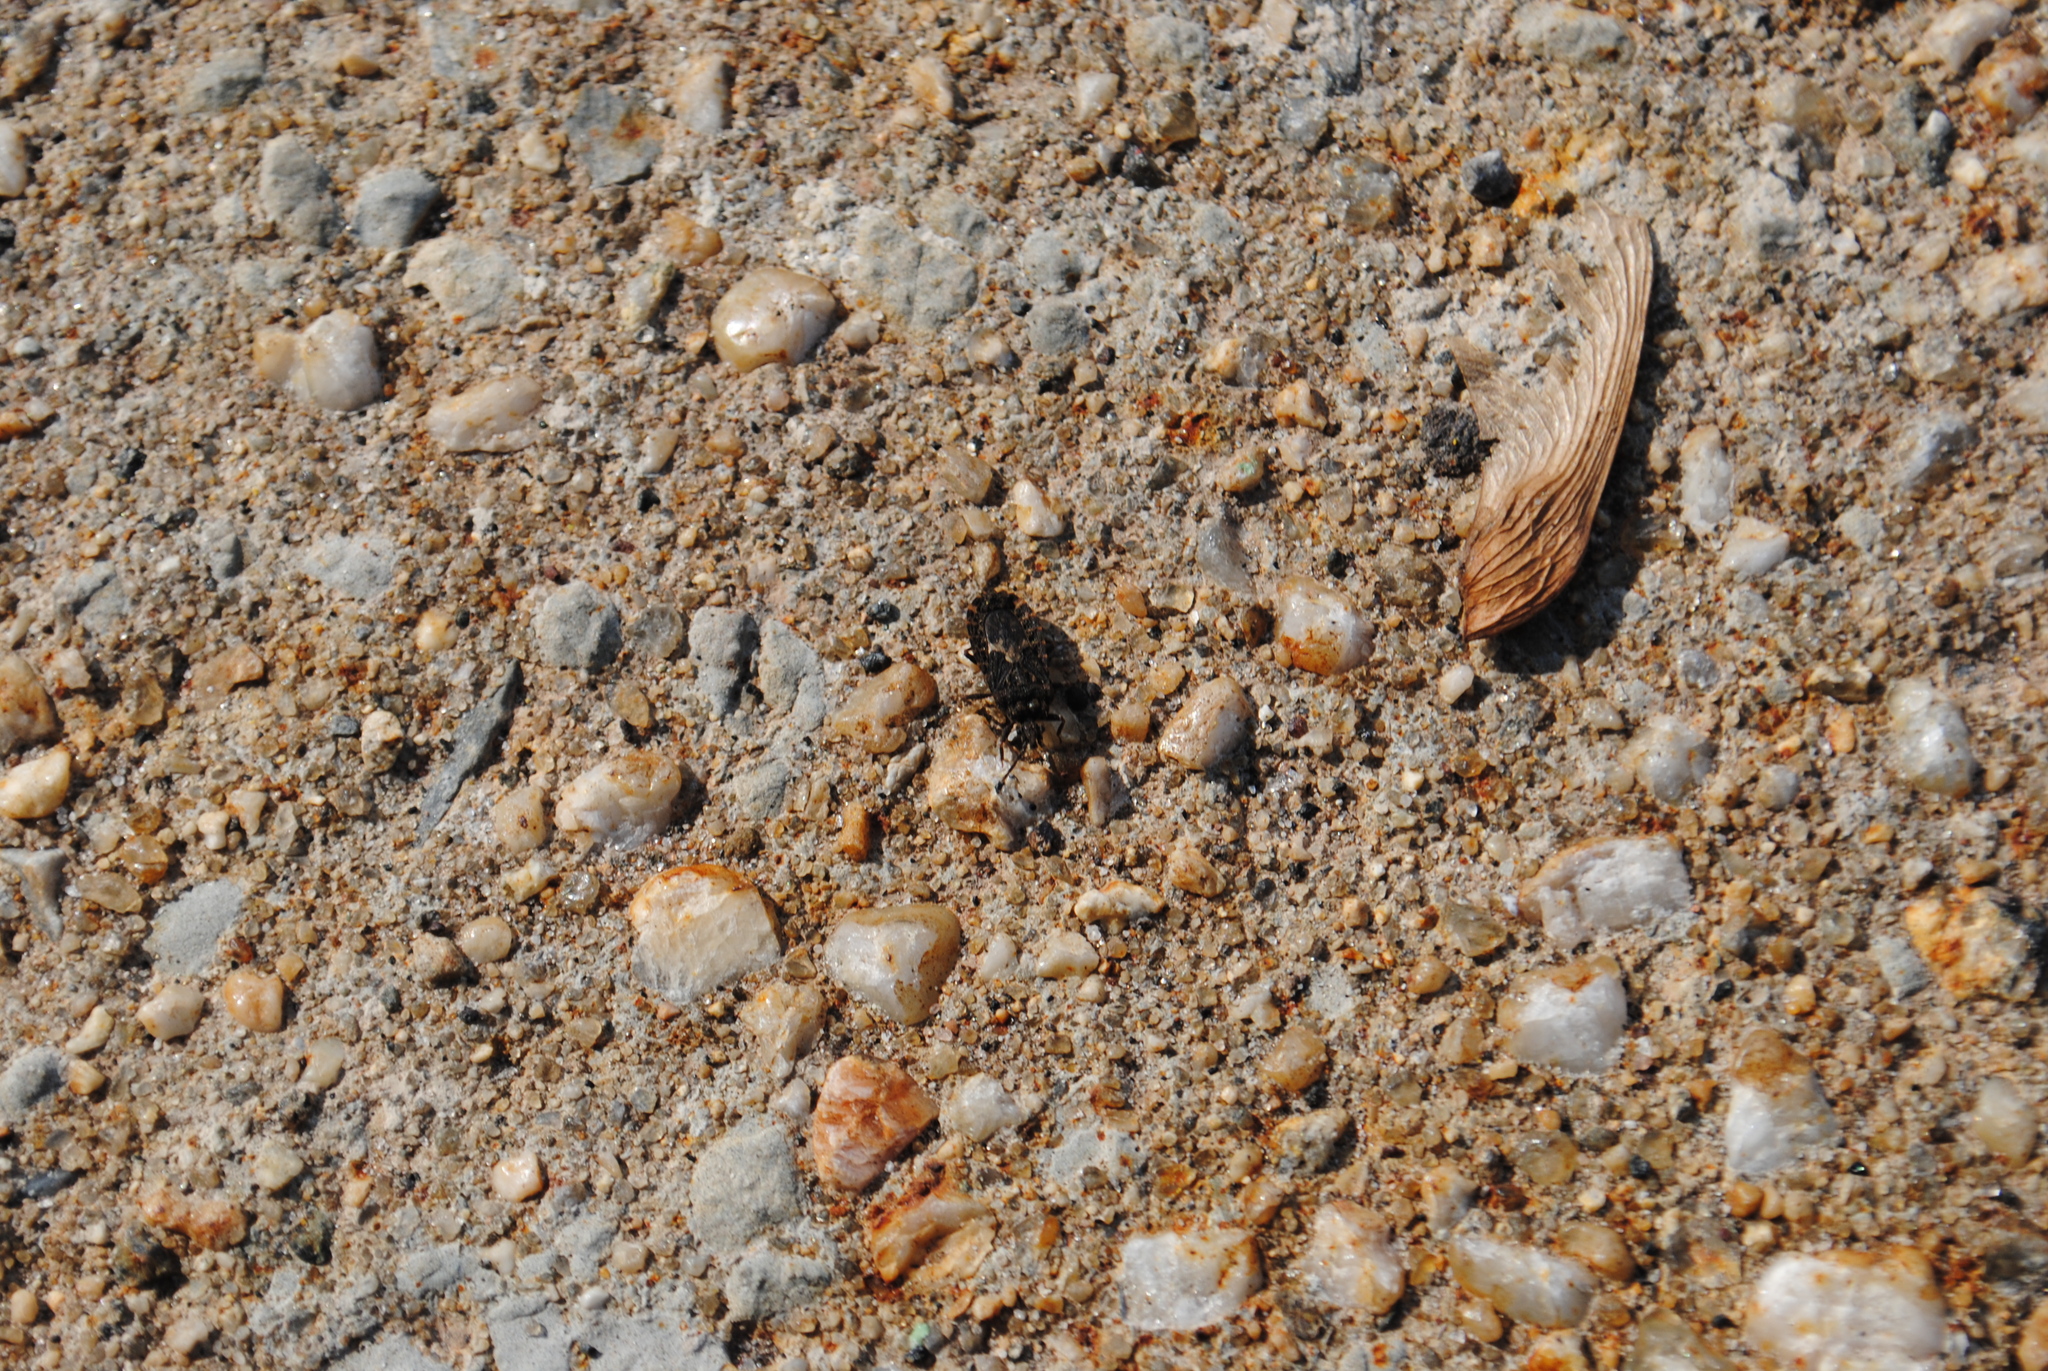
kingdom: Animalia
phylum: Arthropoda
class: Insecta
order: Hemiptera
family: Aradidae
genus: Mezira
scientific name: Mezira
